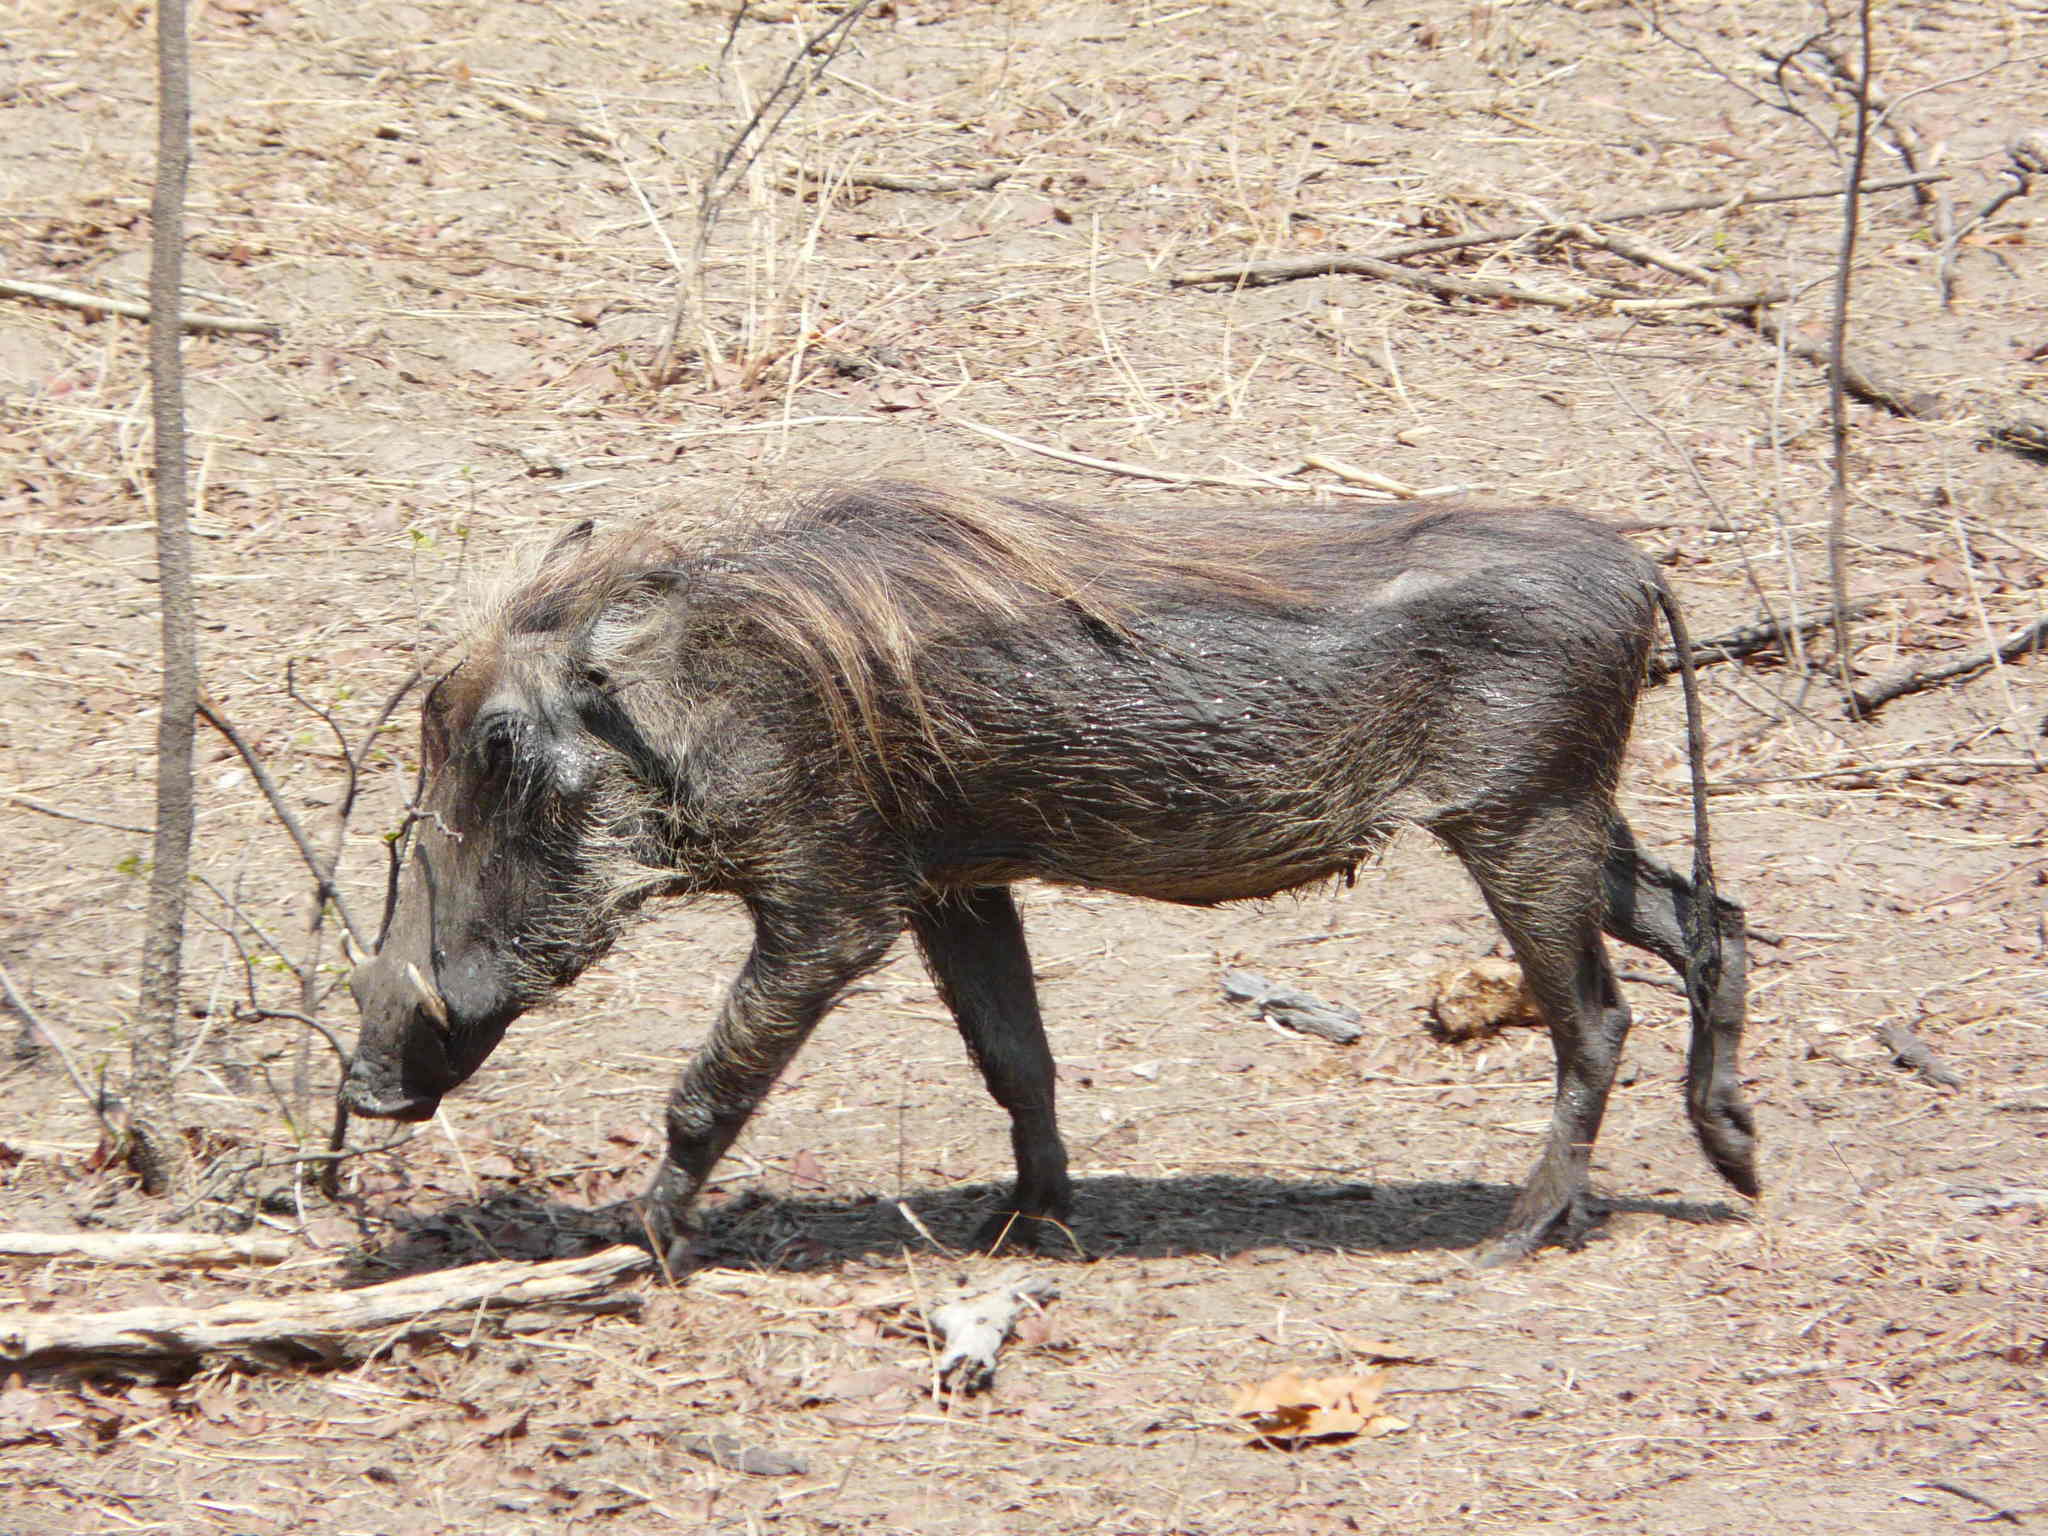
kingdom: Animalia
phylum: Chordata
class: Mammalia
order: Artiodactyla
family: Suidae
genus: Phacochoerus
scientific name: Phacochoerus africanus
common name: Common warthog
